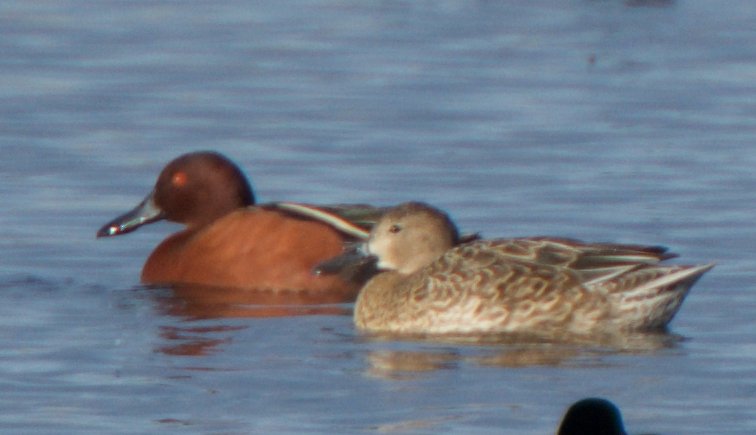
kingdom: Animalia
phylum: Chordata
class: Aves
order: Anseriformes
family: Anatidae
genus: Spatula
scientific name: Spatula cyanoptera
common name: Cinnamon teal
